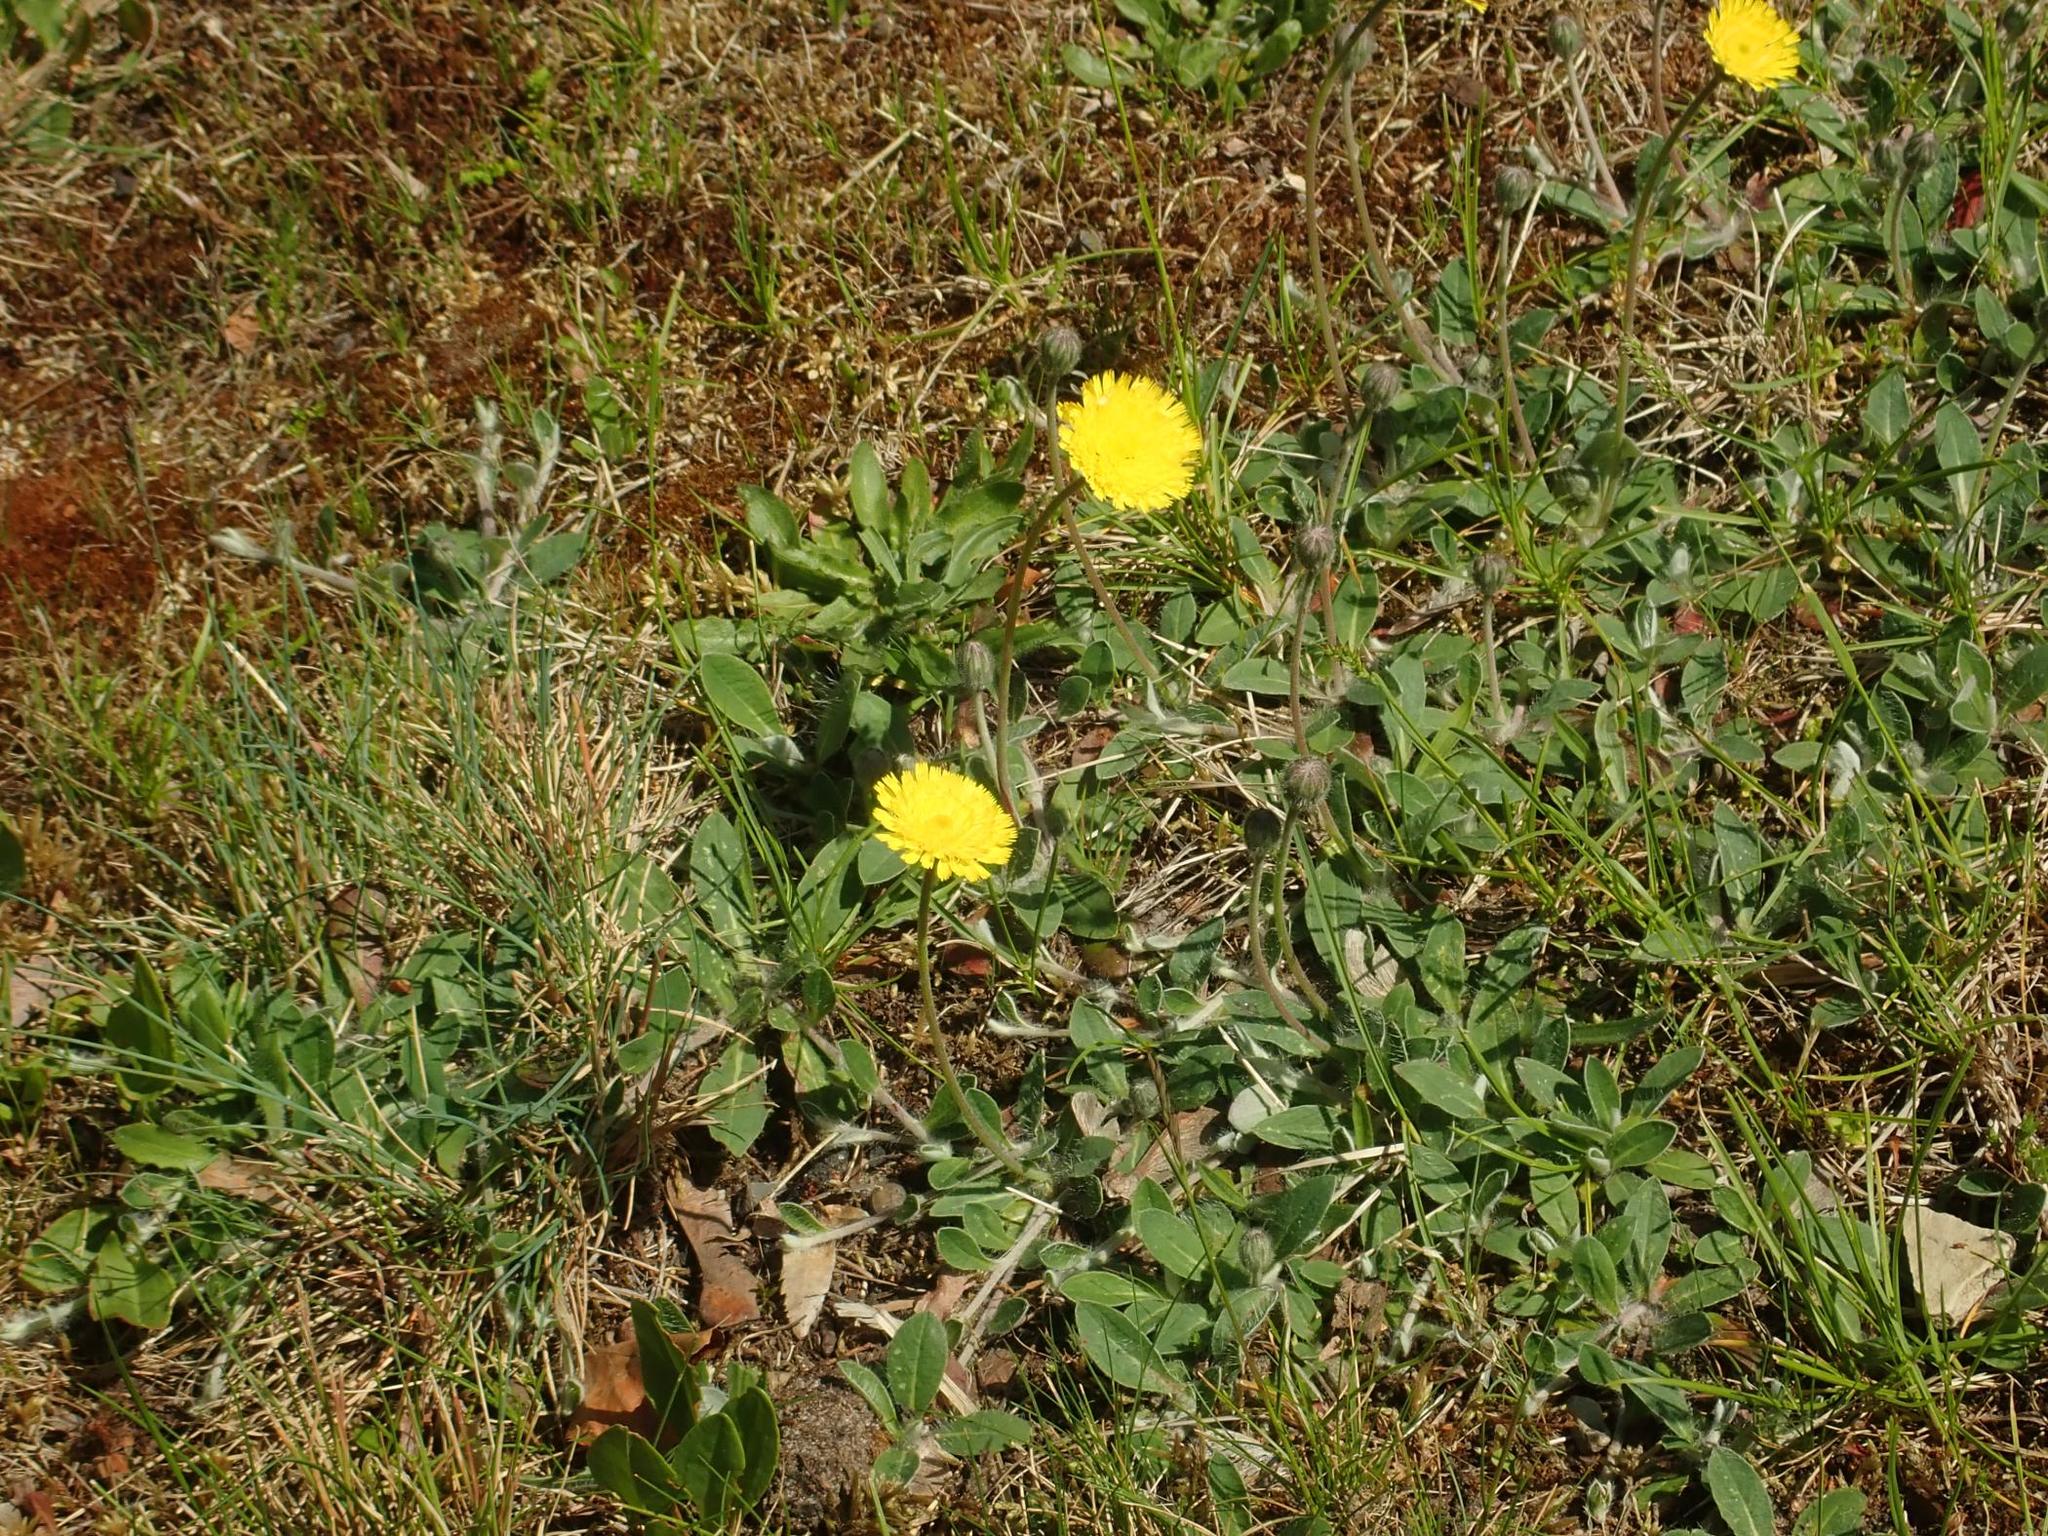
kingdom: Plantae
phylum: Tracheophyta
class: Magnoliopsida
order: Asterales
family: Asteraceae
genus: Pilosella
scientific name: Pilosella officinarum
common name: Mouse-ear hawkweed
